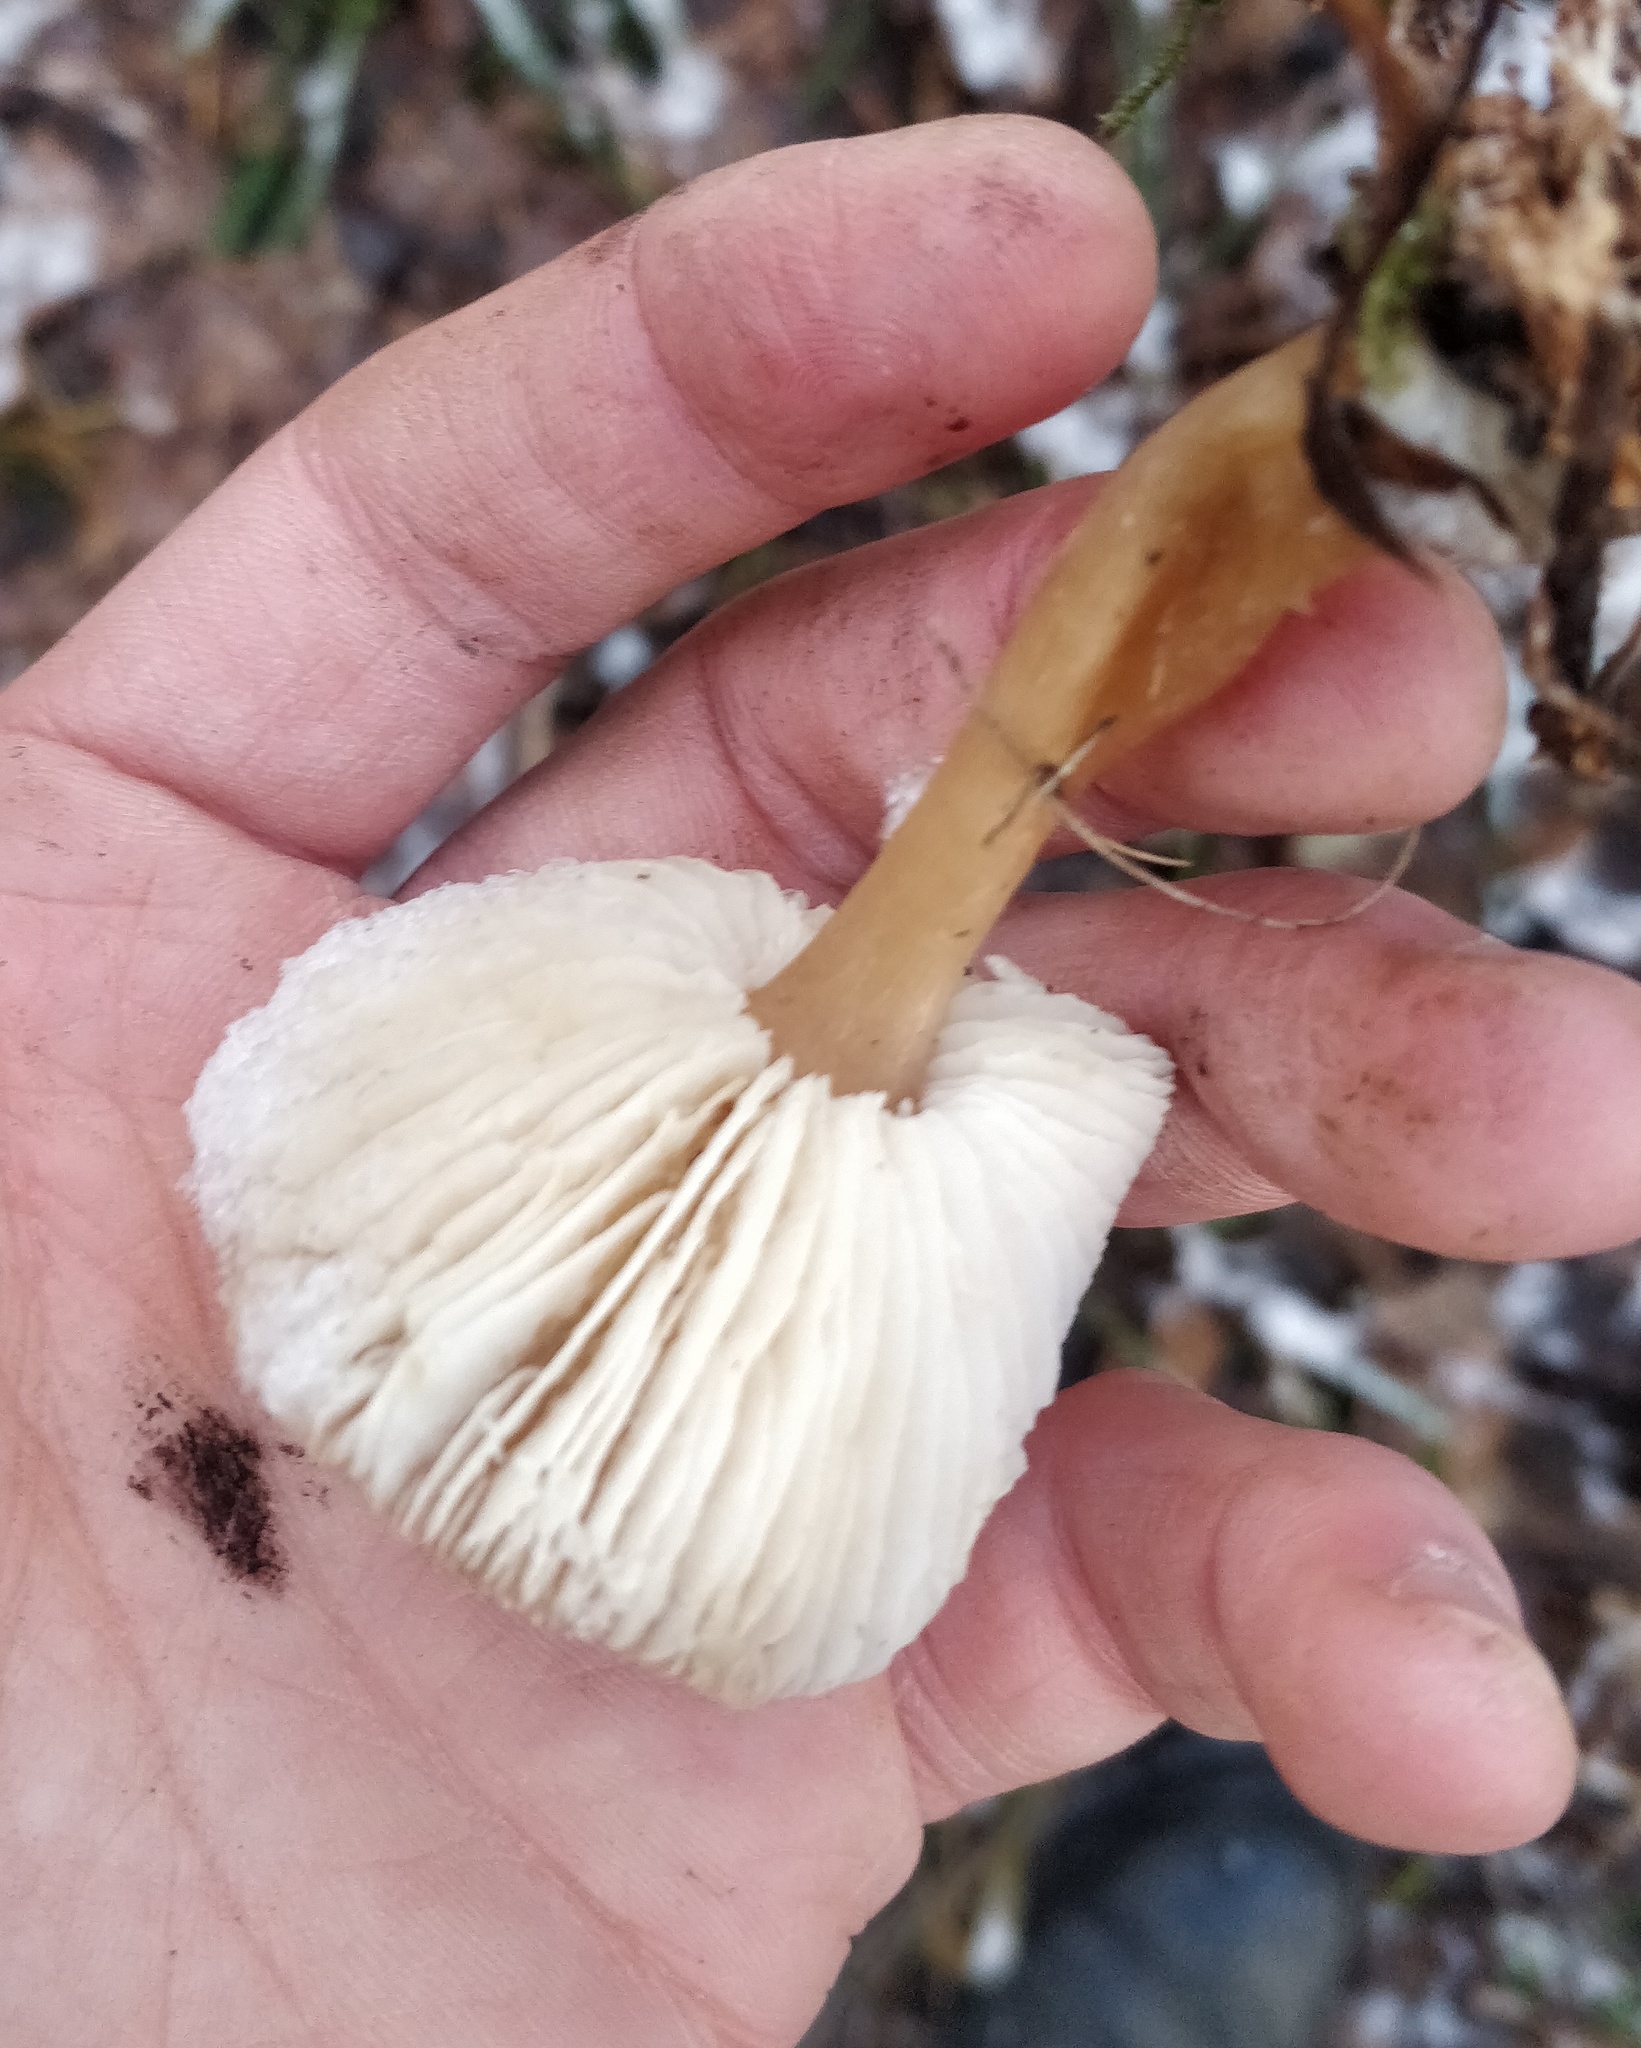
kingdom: Fungi
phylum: Basidiomycota
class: Agaricomycetes
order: Agaricales
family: Omphalotaceae
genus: Rhodocollybia
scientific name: Rhodocollybia butyracea
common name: Butter cap
